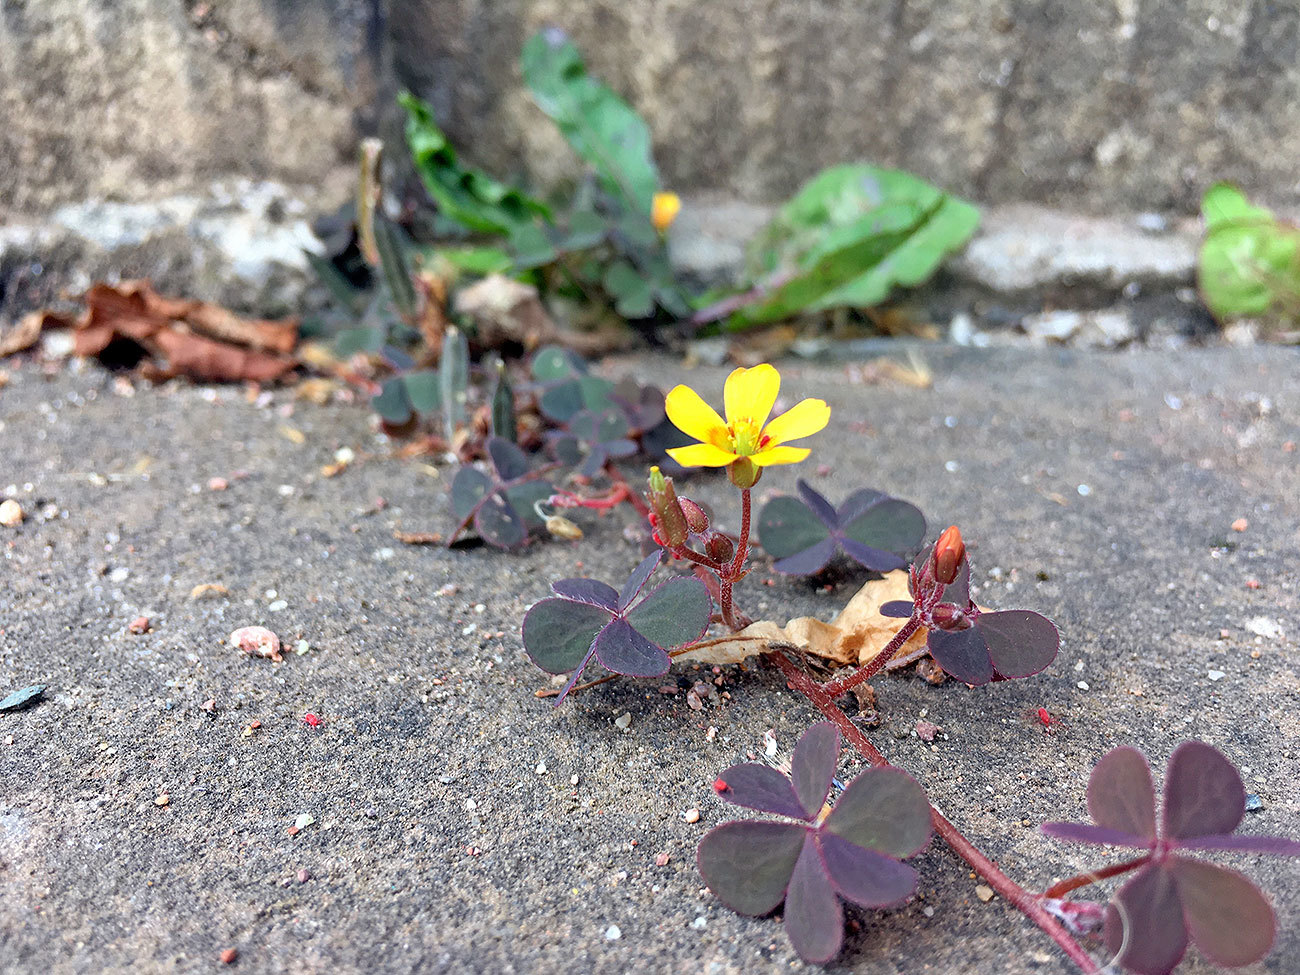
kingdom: Plantae
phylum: Tracheophyta
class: Magnoliopsida
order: Oxalidales
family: Oxalidaceae
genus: Oxalis
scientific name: Oxalis corniculata
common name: Procumbent yellow-sorrel
